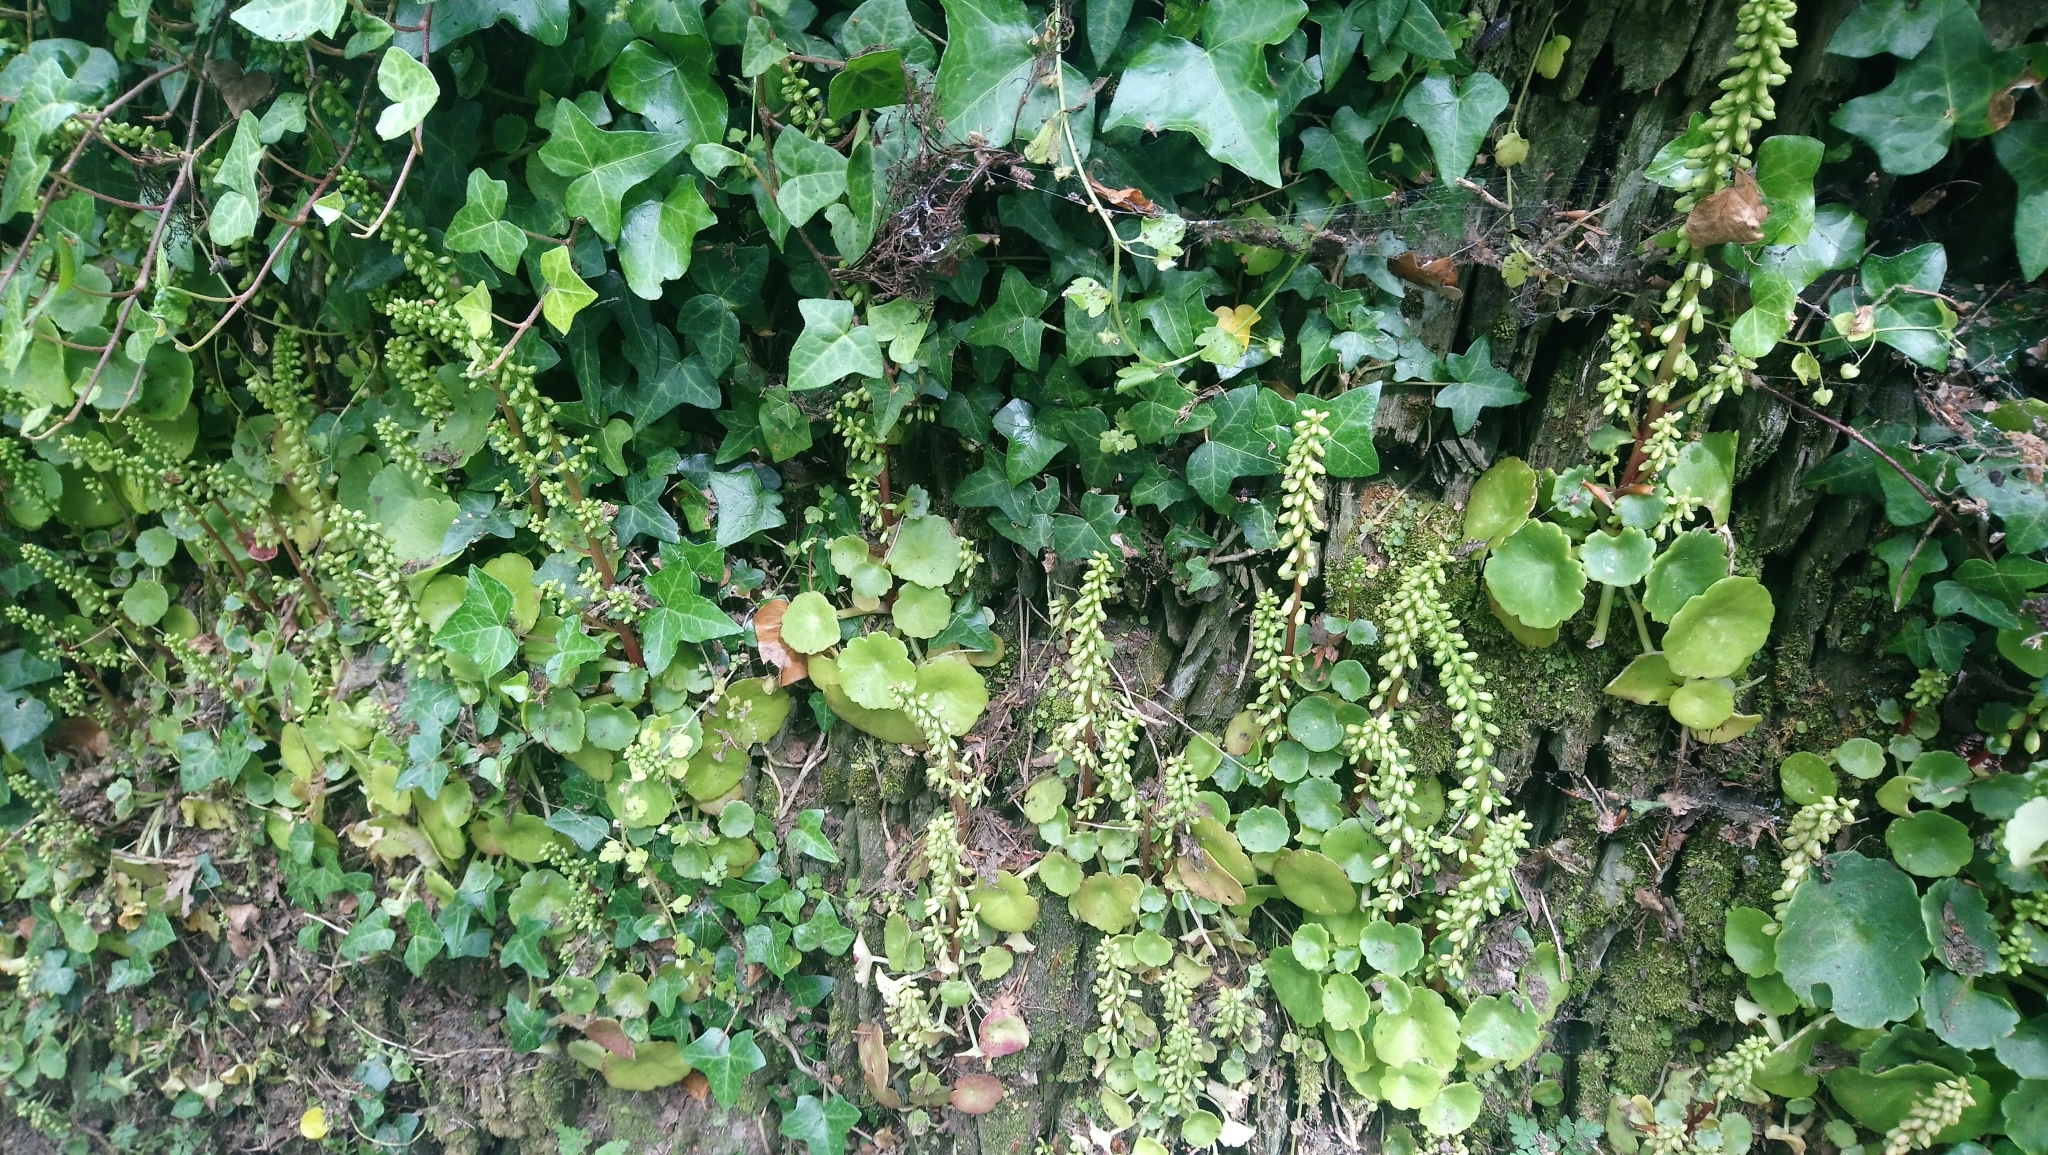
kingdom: Plantae
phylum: Tracheophyta
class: Magnoliopsida
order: Saxifragales
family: Crassulaceae
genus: Umbilicus
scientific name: Umbilicus rupestris
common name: Navelwort
